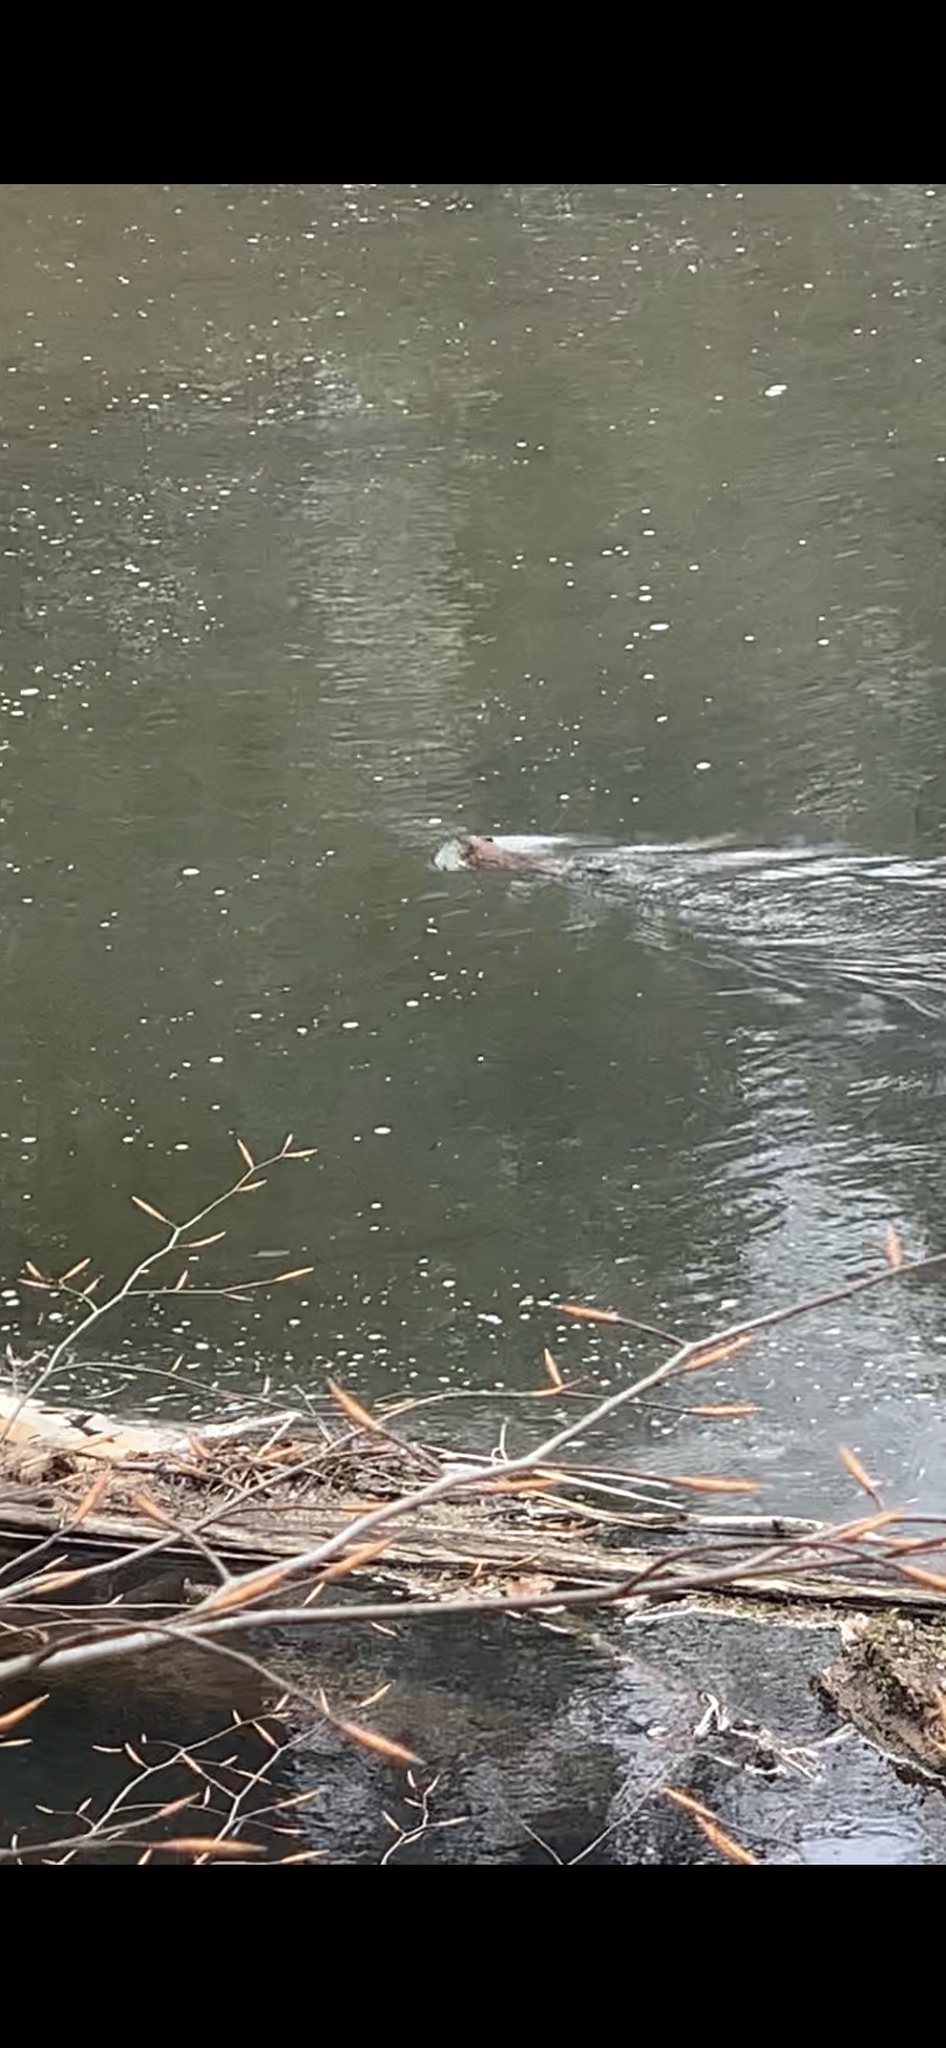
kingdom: Animalia
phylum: Chordata
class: Mammalia
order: Rodentia
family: Cricetidae
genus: Ondatra
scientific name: Ondatra zibethicus
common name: Muskrat
